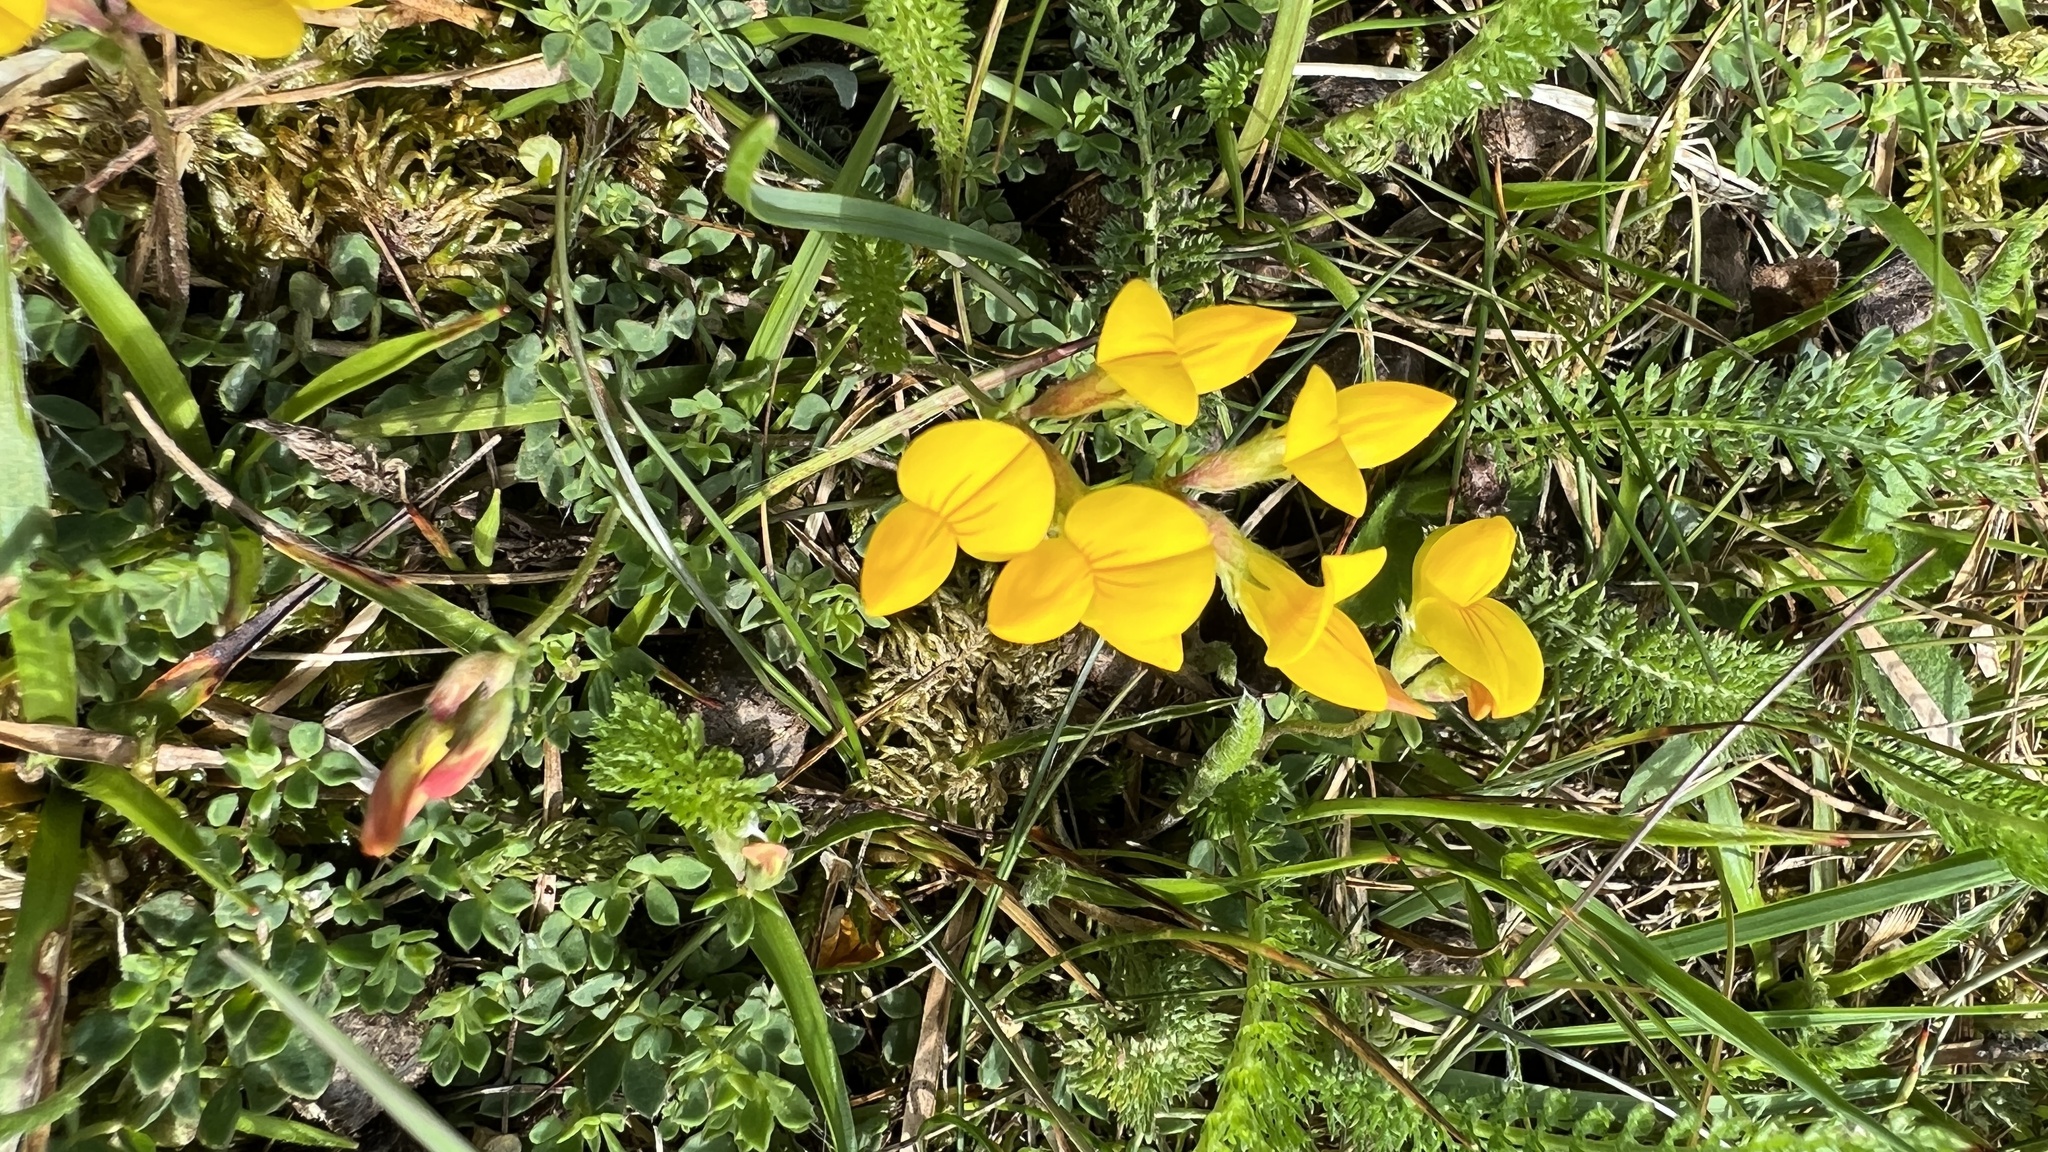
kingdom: Plantae
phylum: Tracheophyta
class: Magnoliopsida
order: Fabales
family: Fabaceae
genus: Lotus
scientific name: Lotus corniculatus
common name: Common bird's-foot-trefoil
